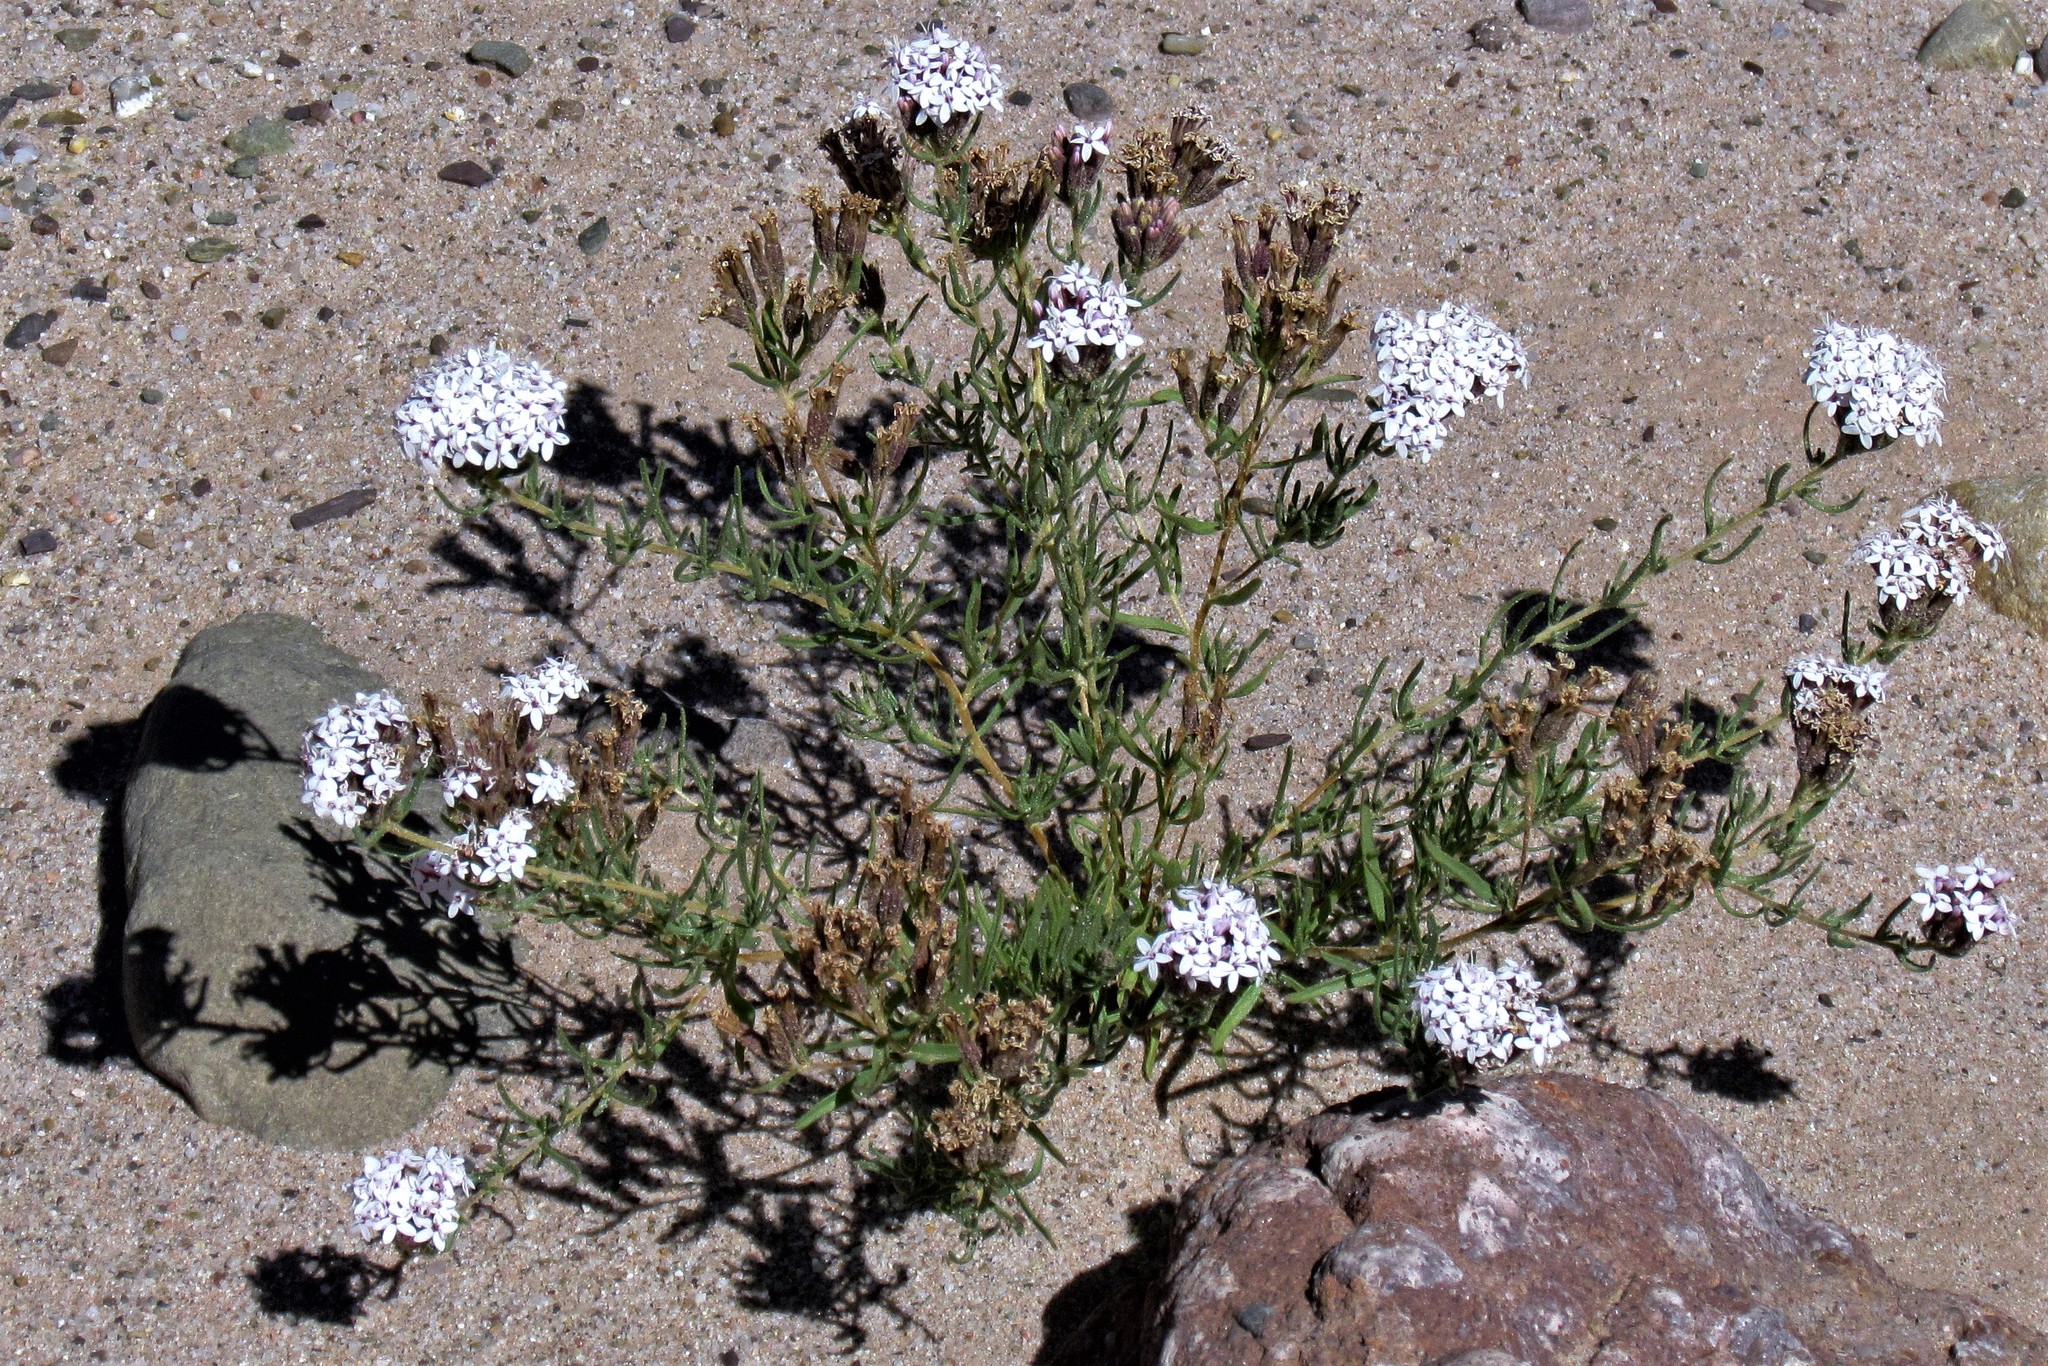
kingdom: Plantae
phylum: Tracheophyta
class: Magnoliopsida
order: Asterales
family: Asteraceae
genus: Stevia
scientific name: Stevia minor
